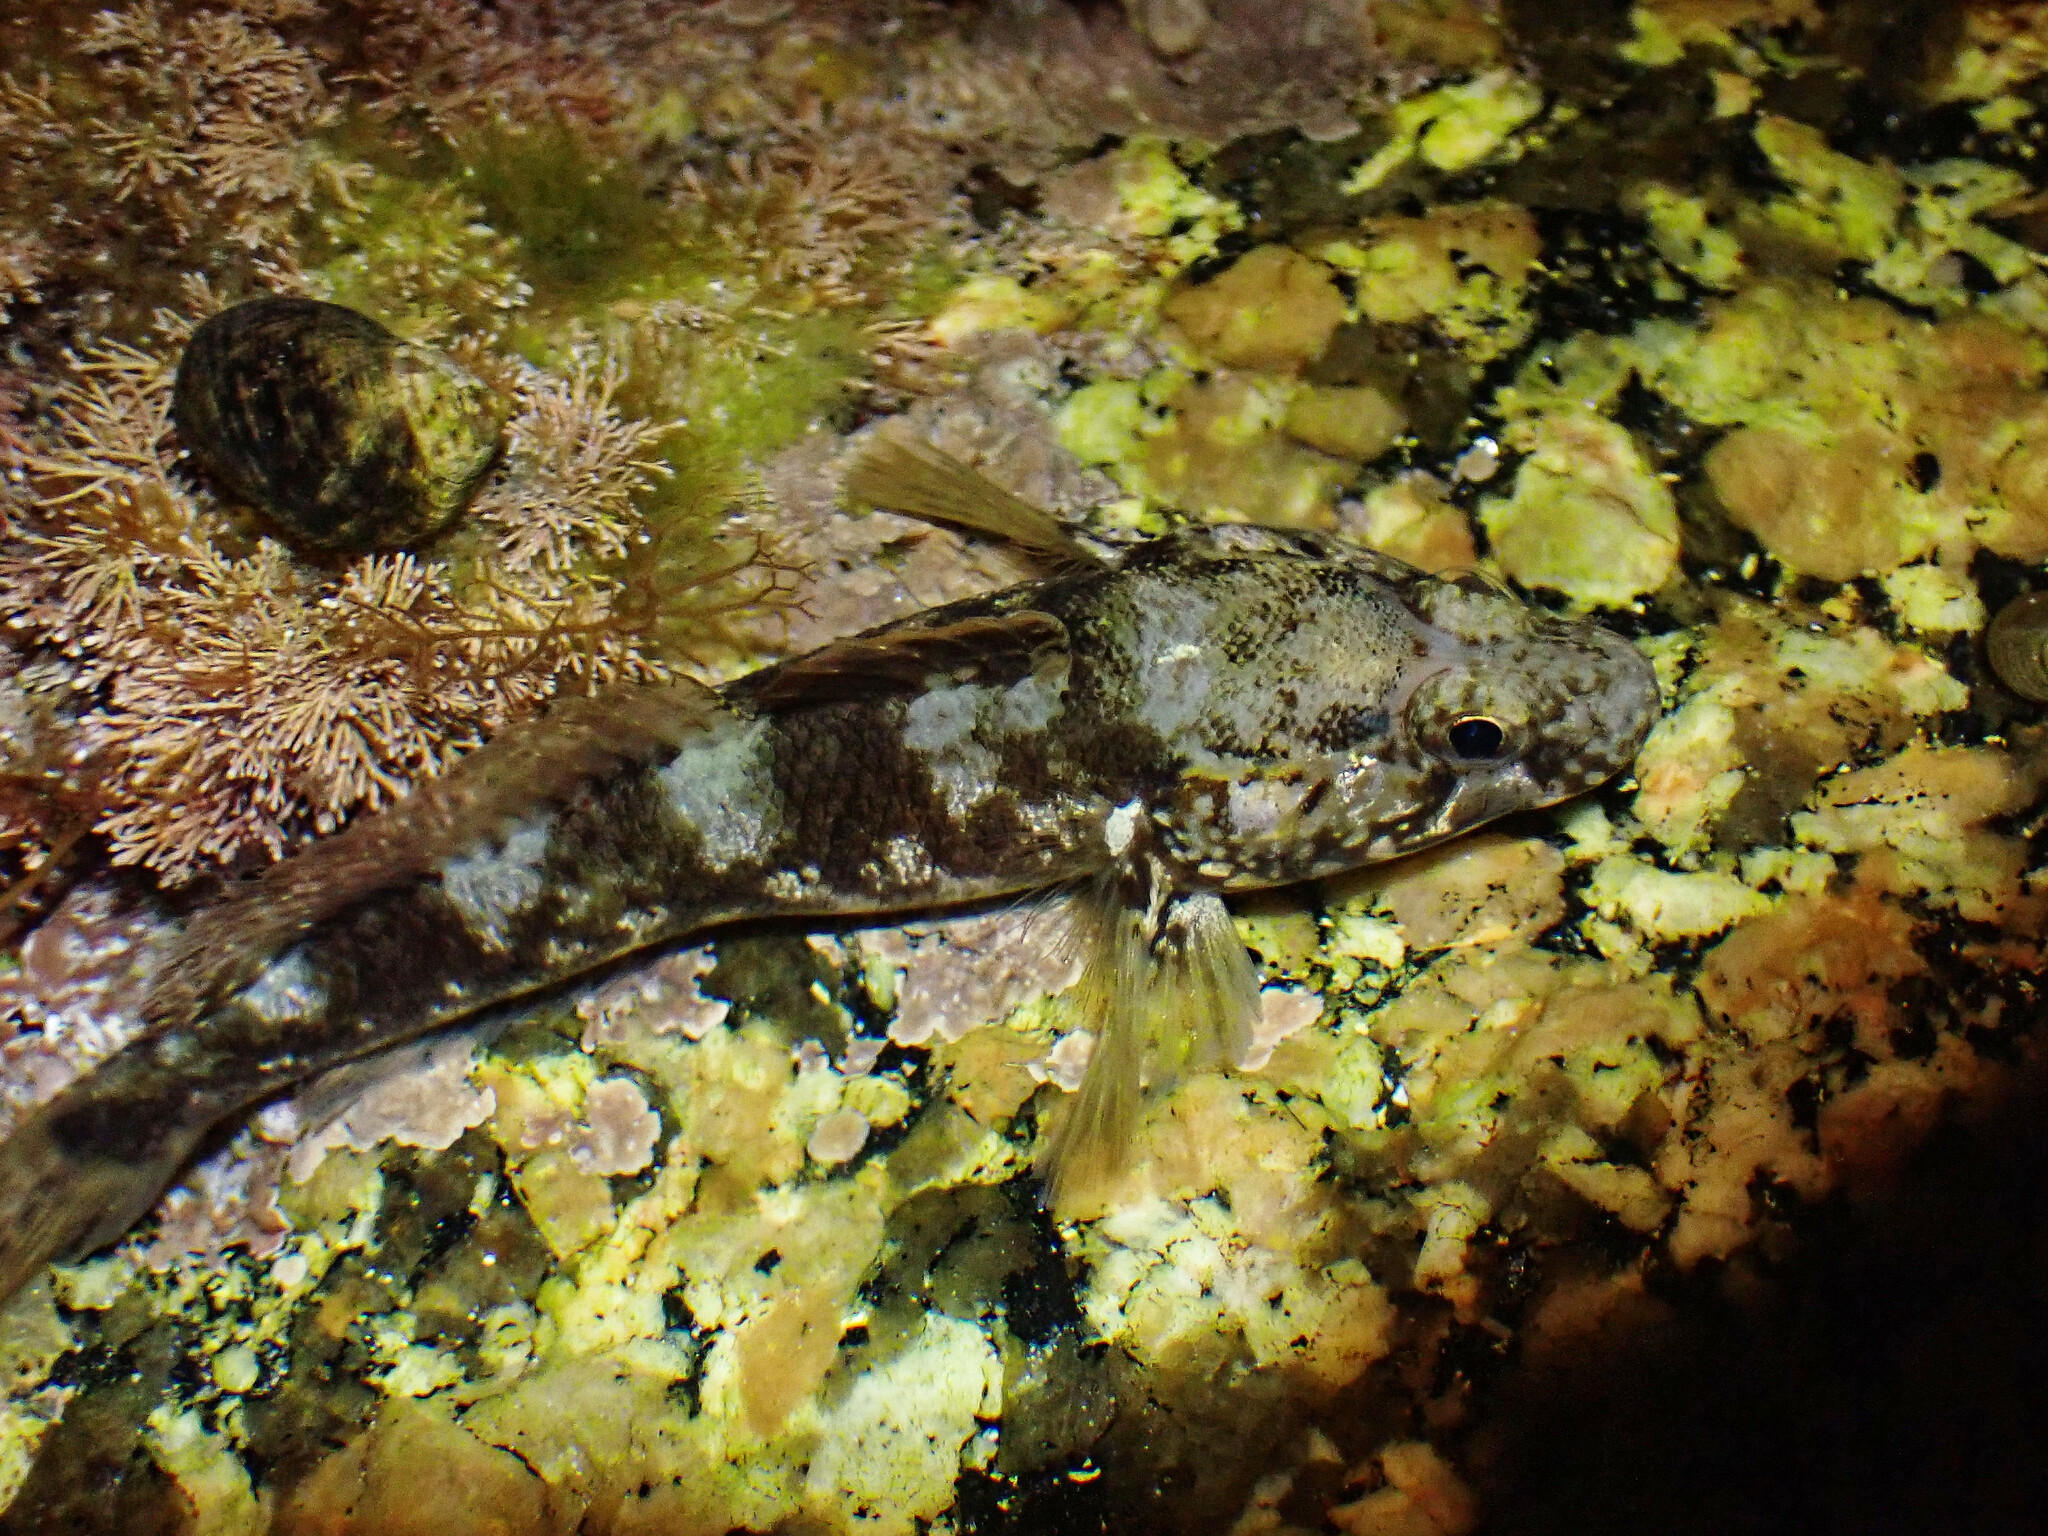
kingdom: Animalia
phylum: Chordata
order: Perciformes
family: Gobiidae
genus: Gobius
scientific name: Gobius paganellus
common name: Rock goby
